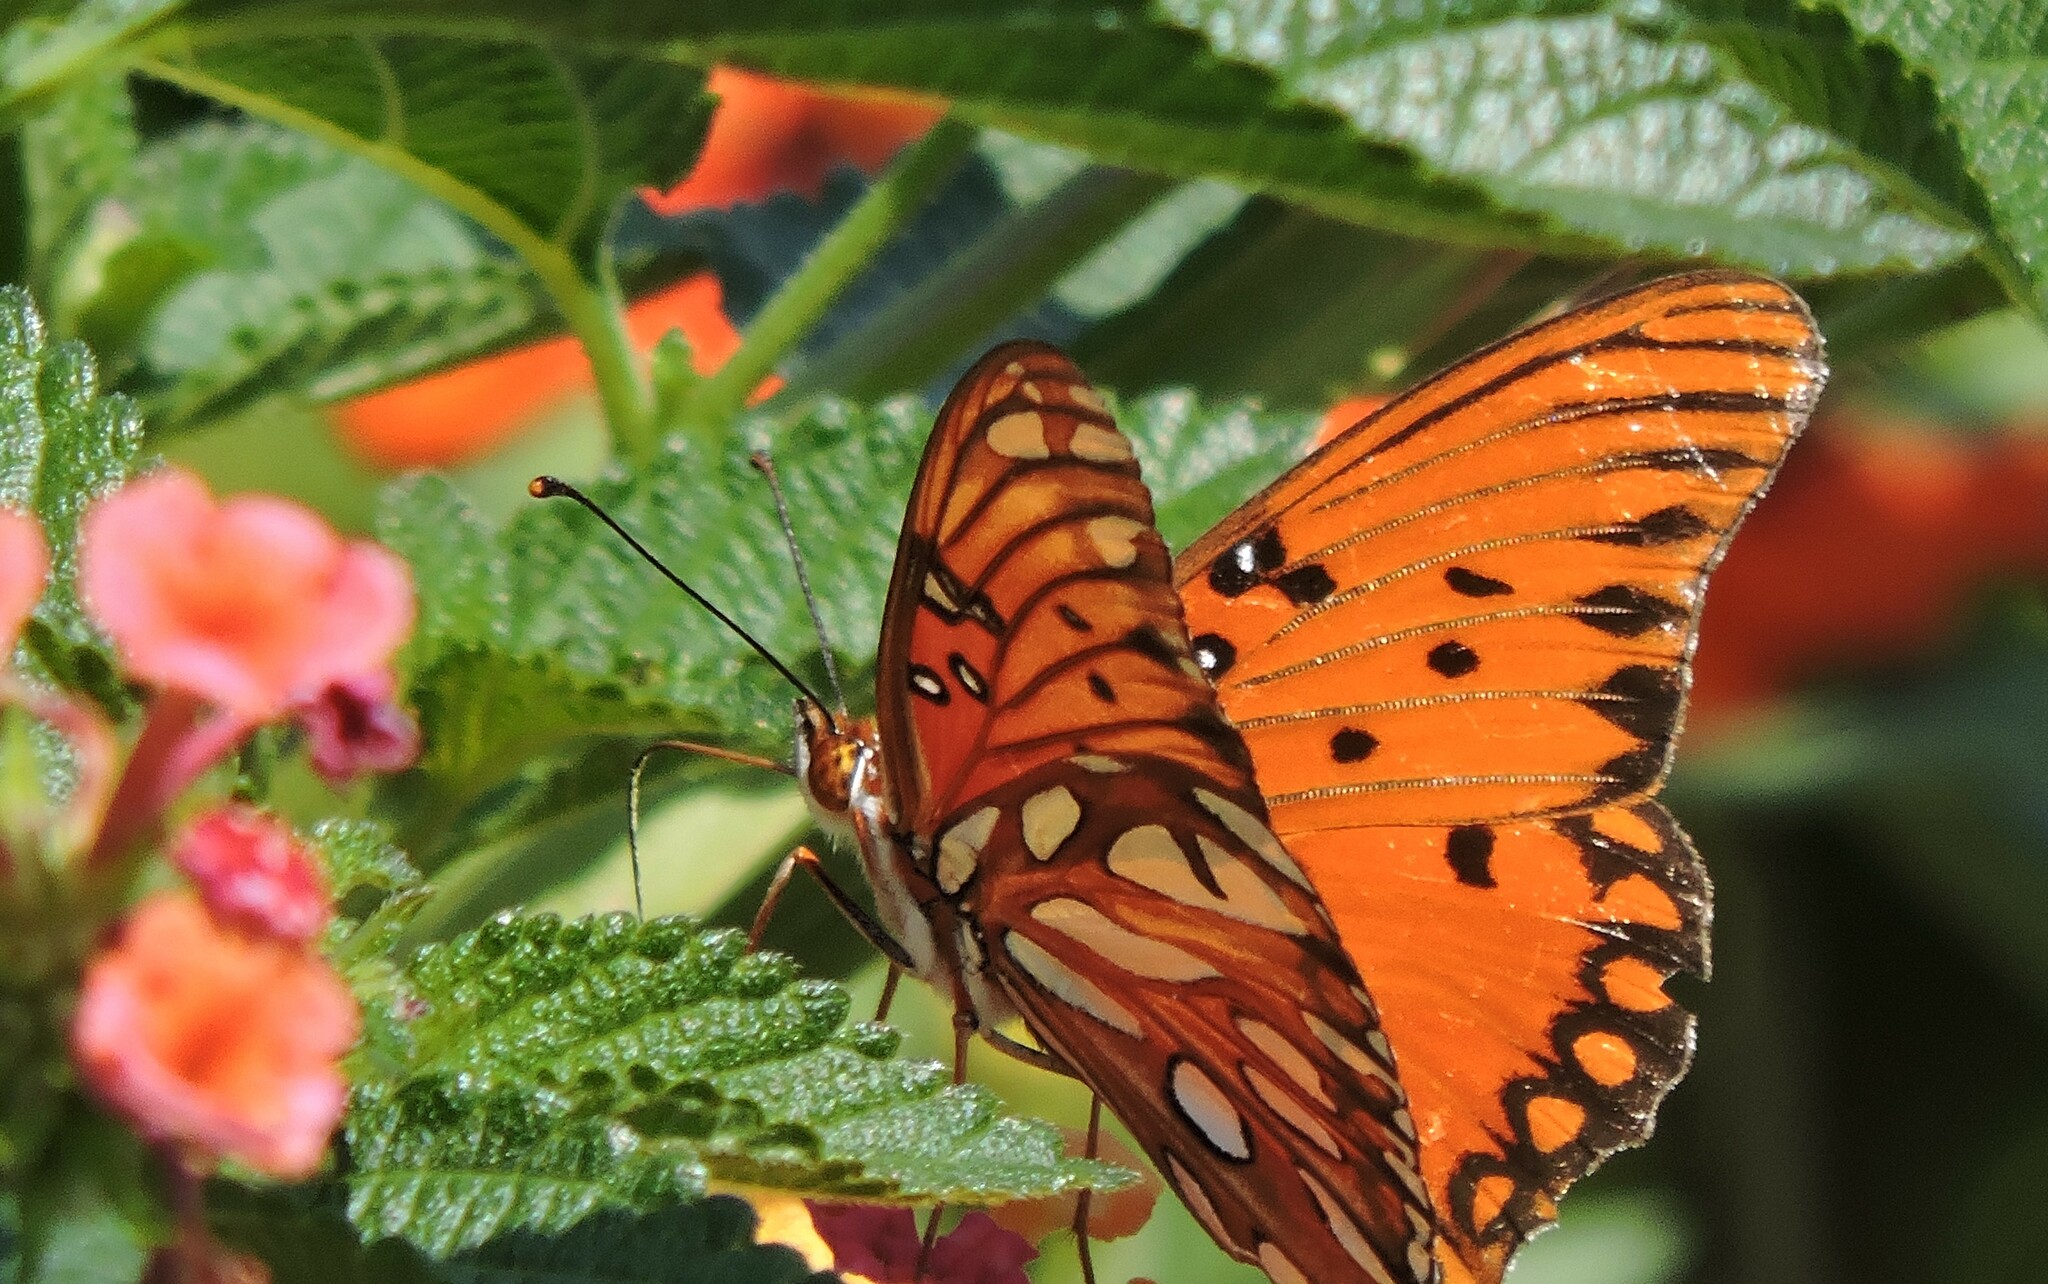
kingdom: Animalia
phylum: Arthropoda
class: Insecta
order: Lepidoptera
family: Nymphalidae
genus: Dione
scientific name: Dione vanillae
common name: Gulf fritillary
